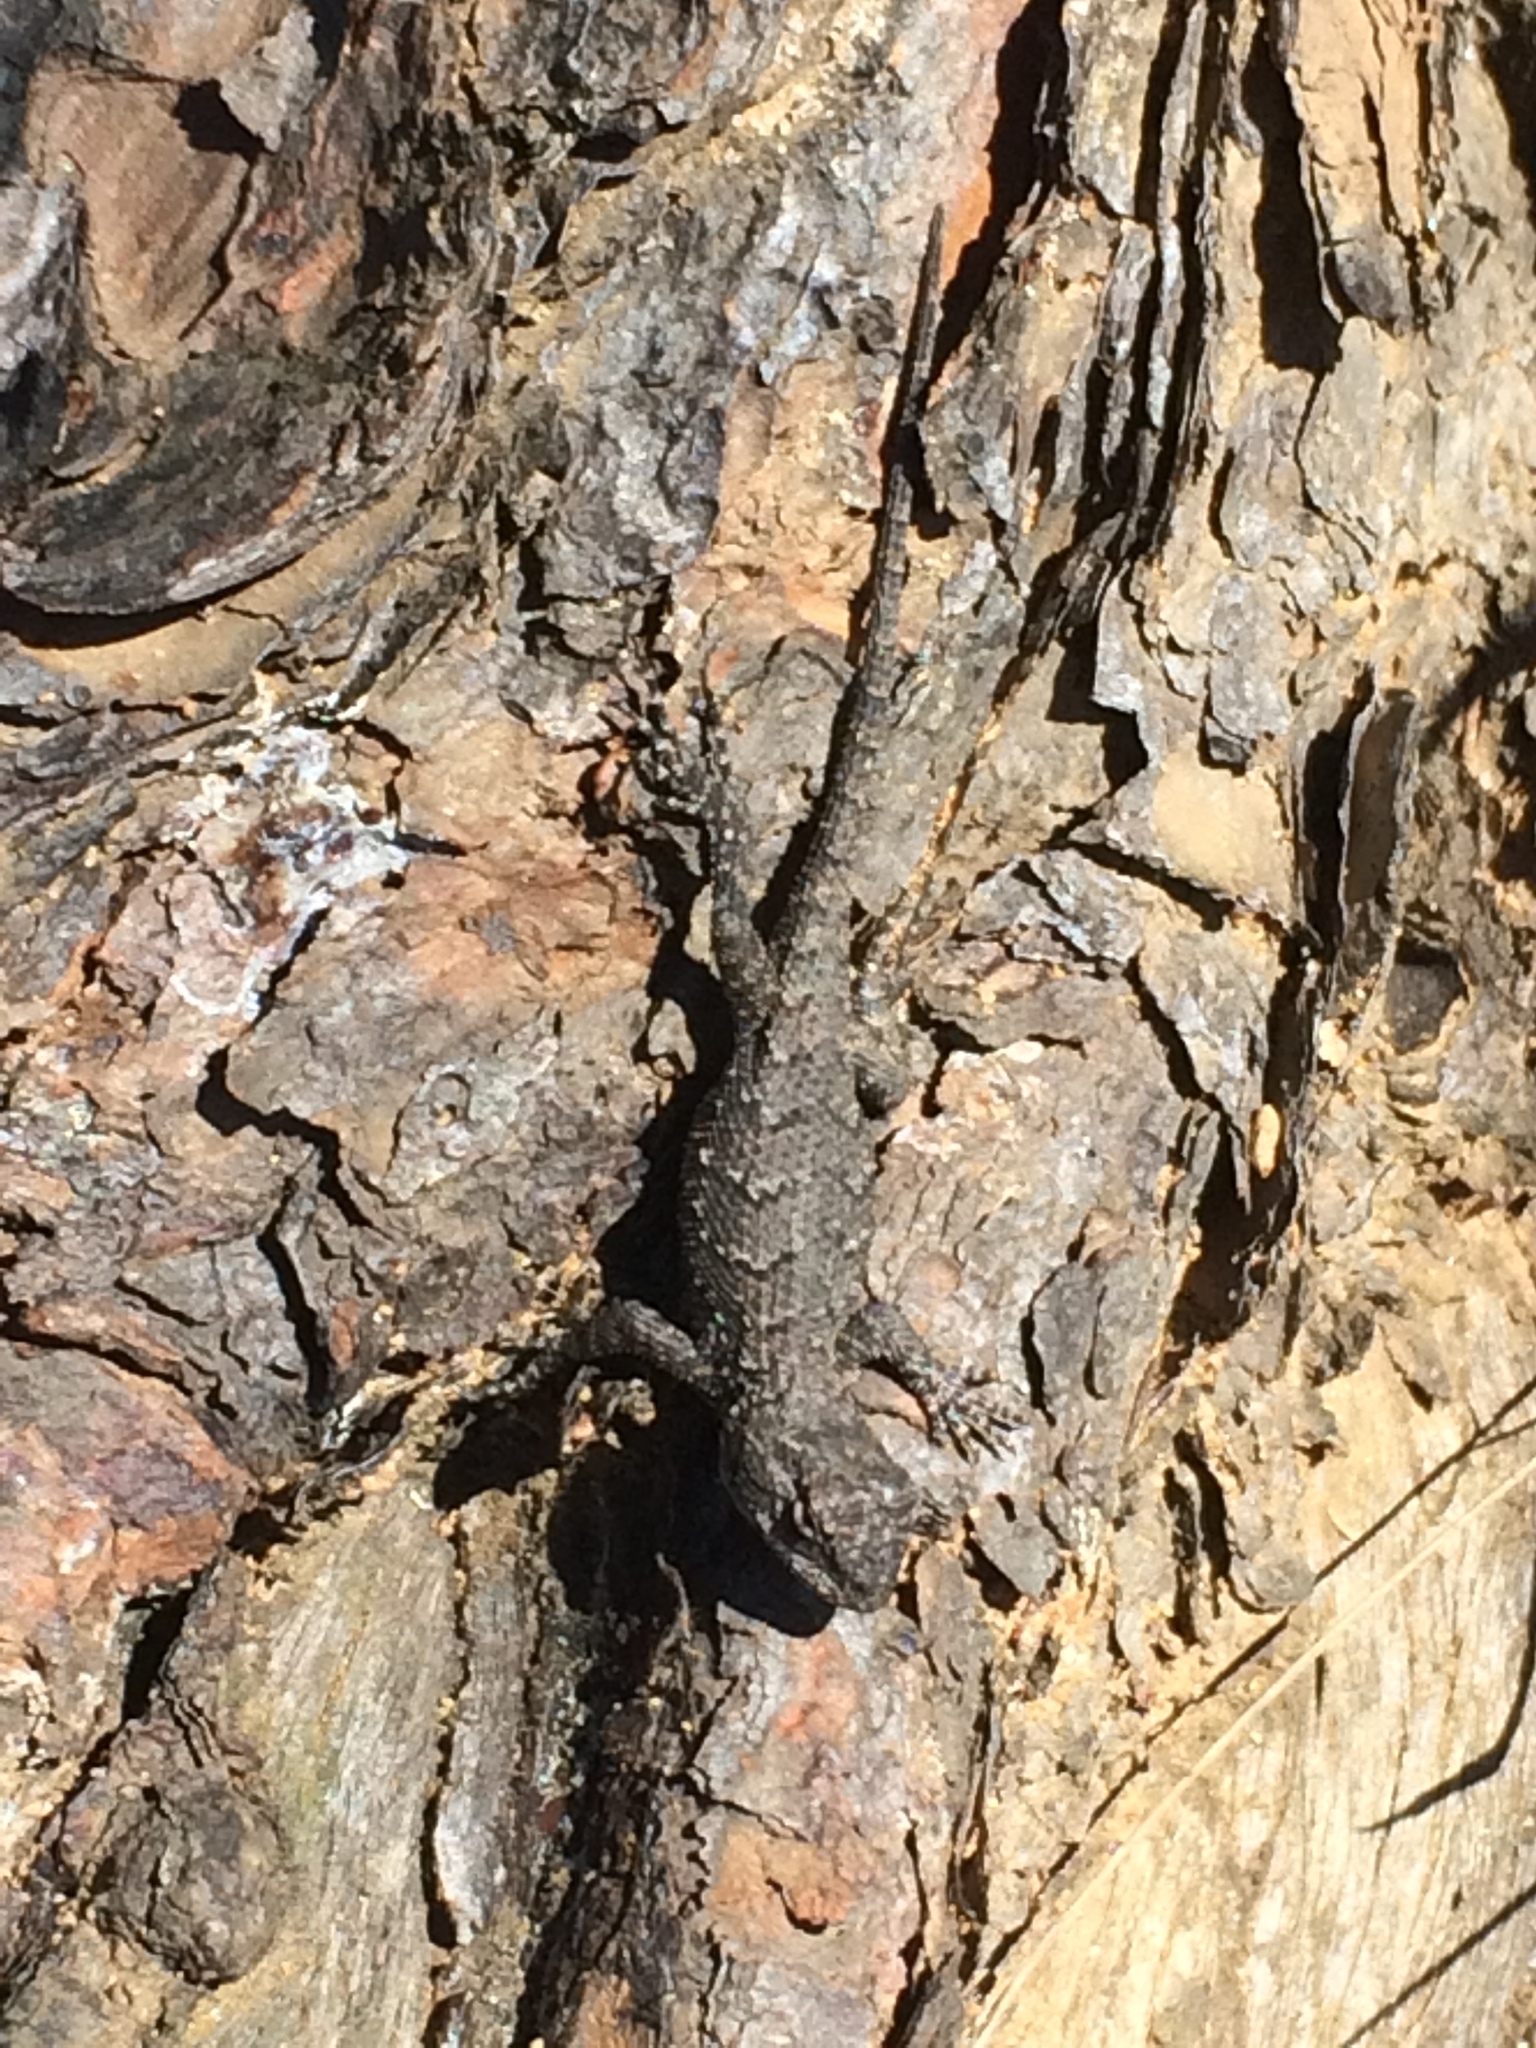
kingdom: Animalia
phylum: Chordata
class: Squamata
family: Phrynosomatidae
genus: Sceloporus
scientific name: Sceloporus undulatus
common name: Eastern fence lizard
